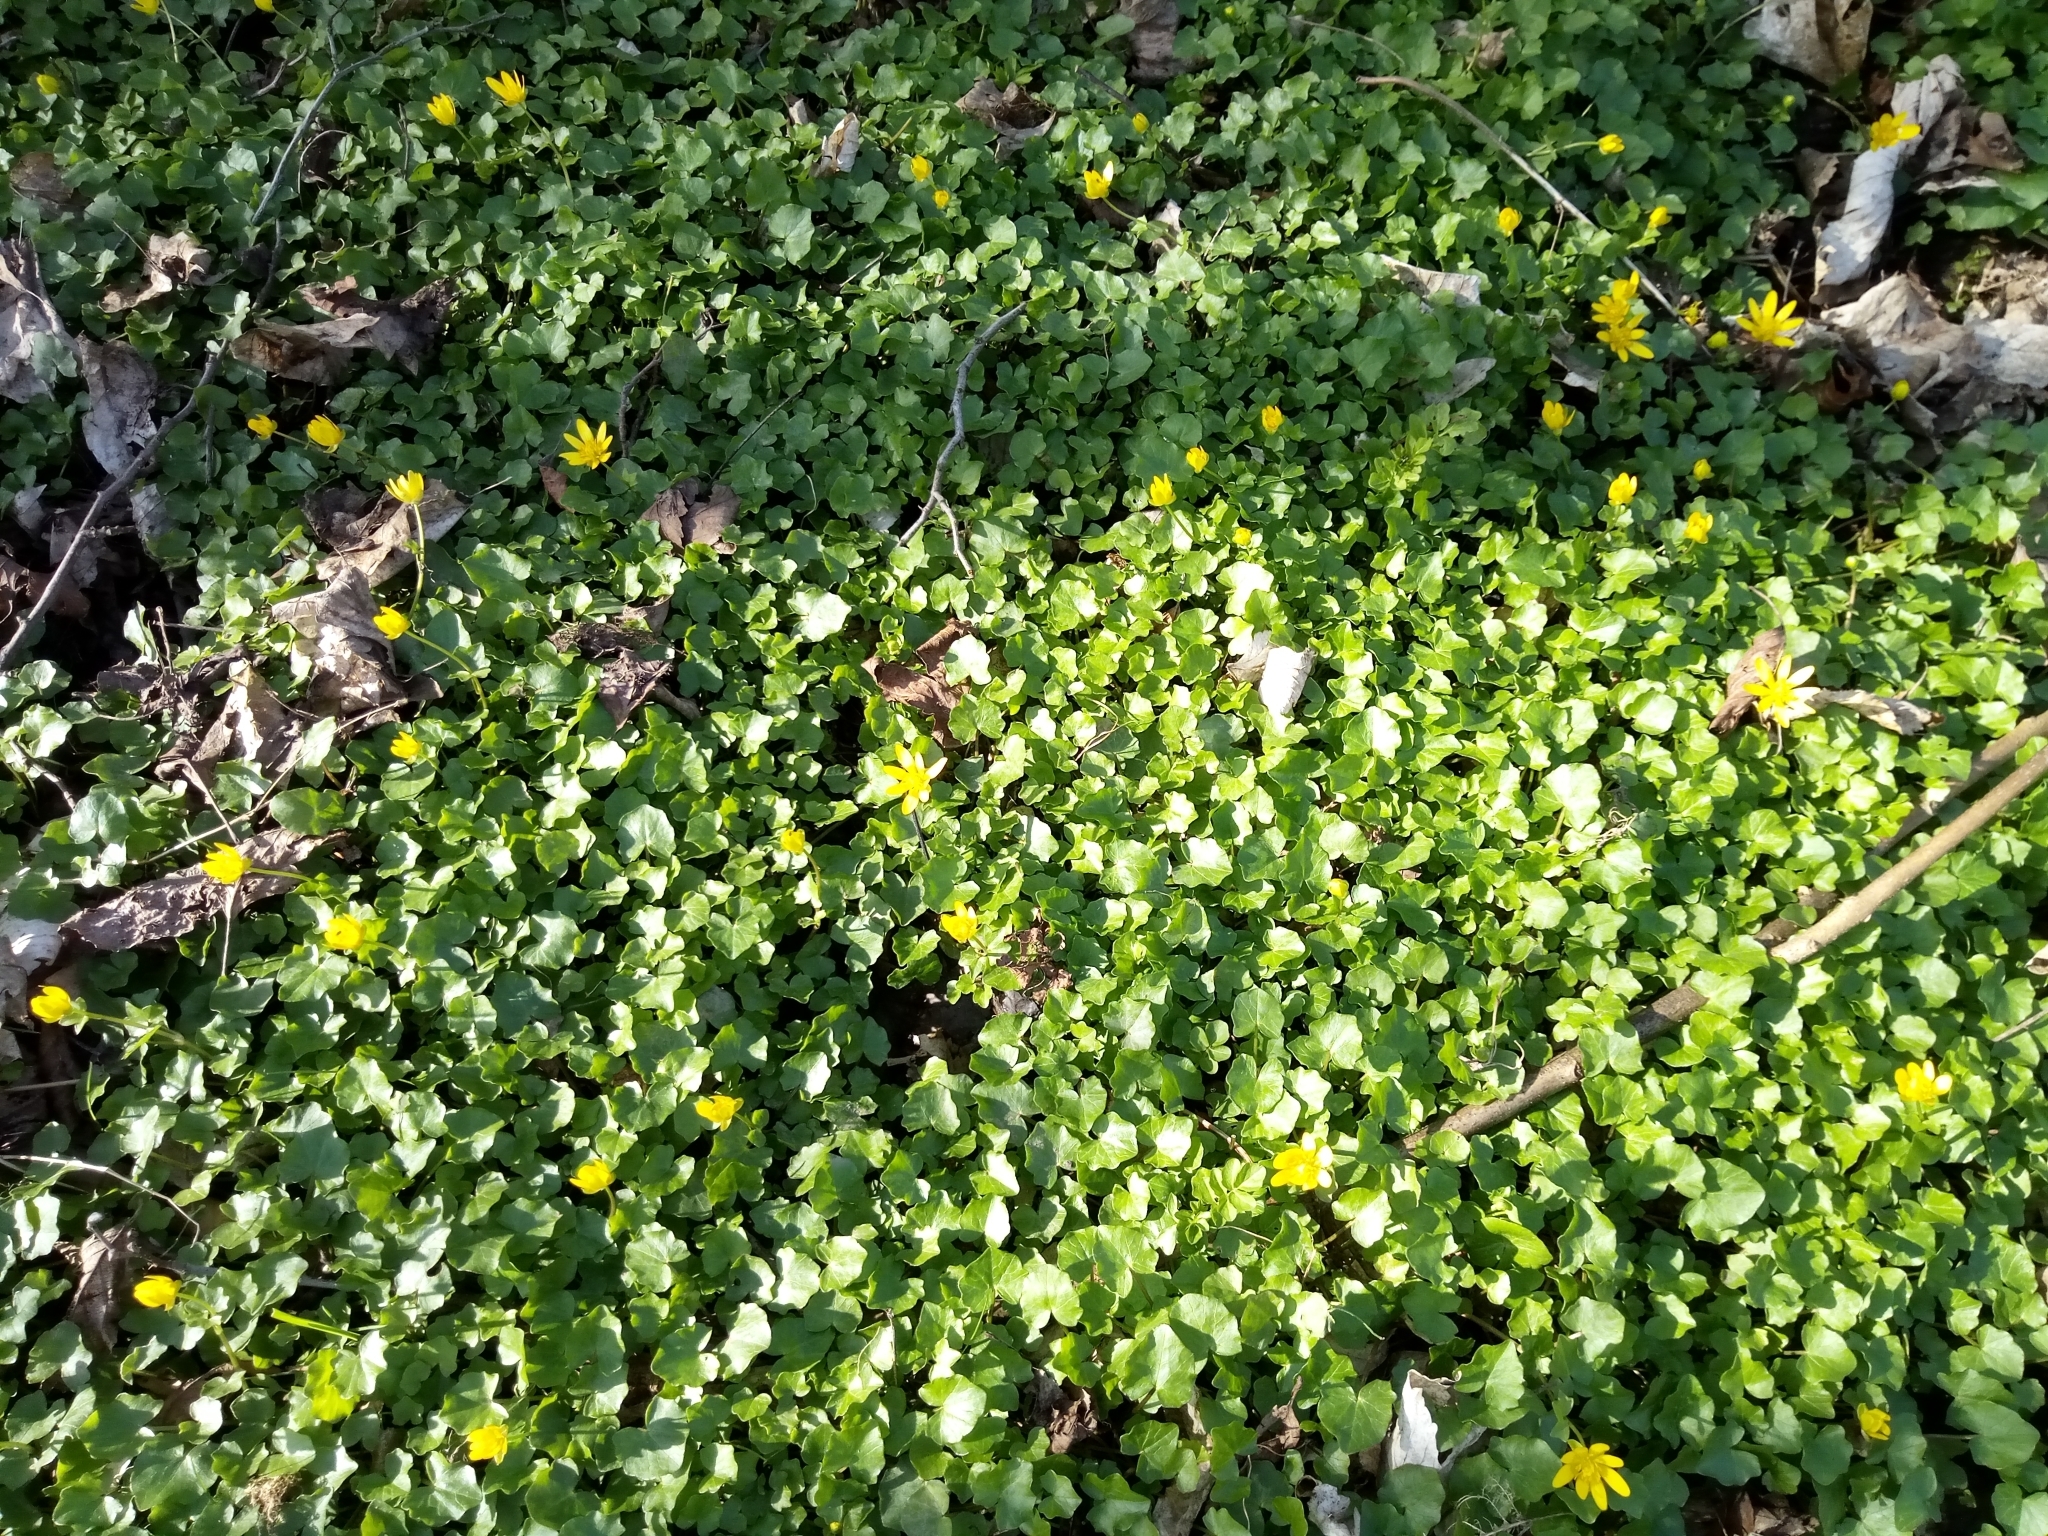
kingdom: Plantae
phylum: Tracheophyta
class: Magnoliopsida
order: Ranunculales
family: Ranunculaceae
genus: Ficaria
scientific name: Ficaria verna
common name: Lesser celandine
